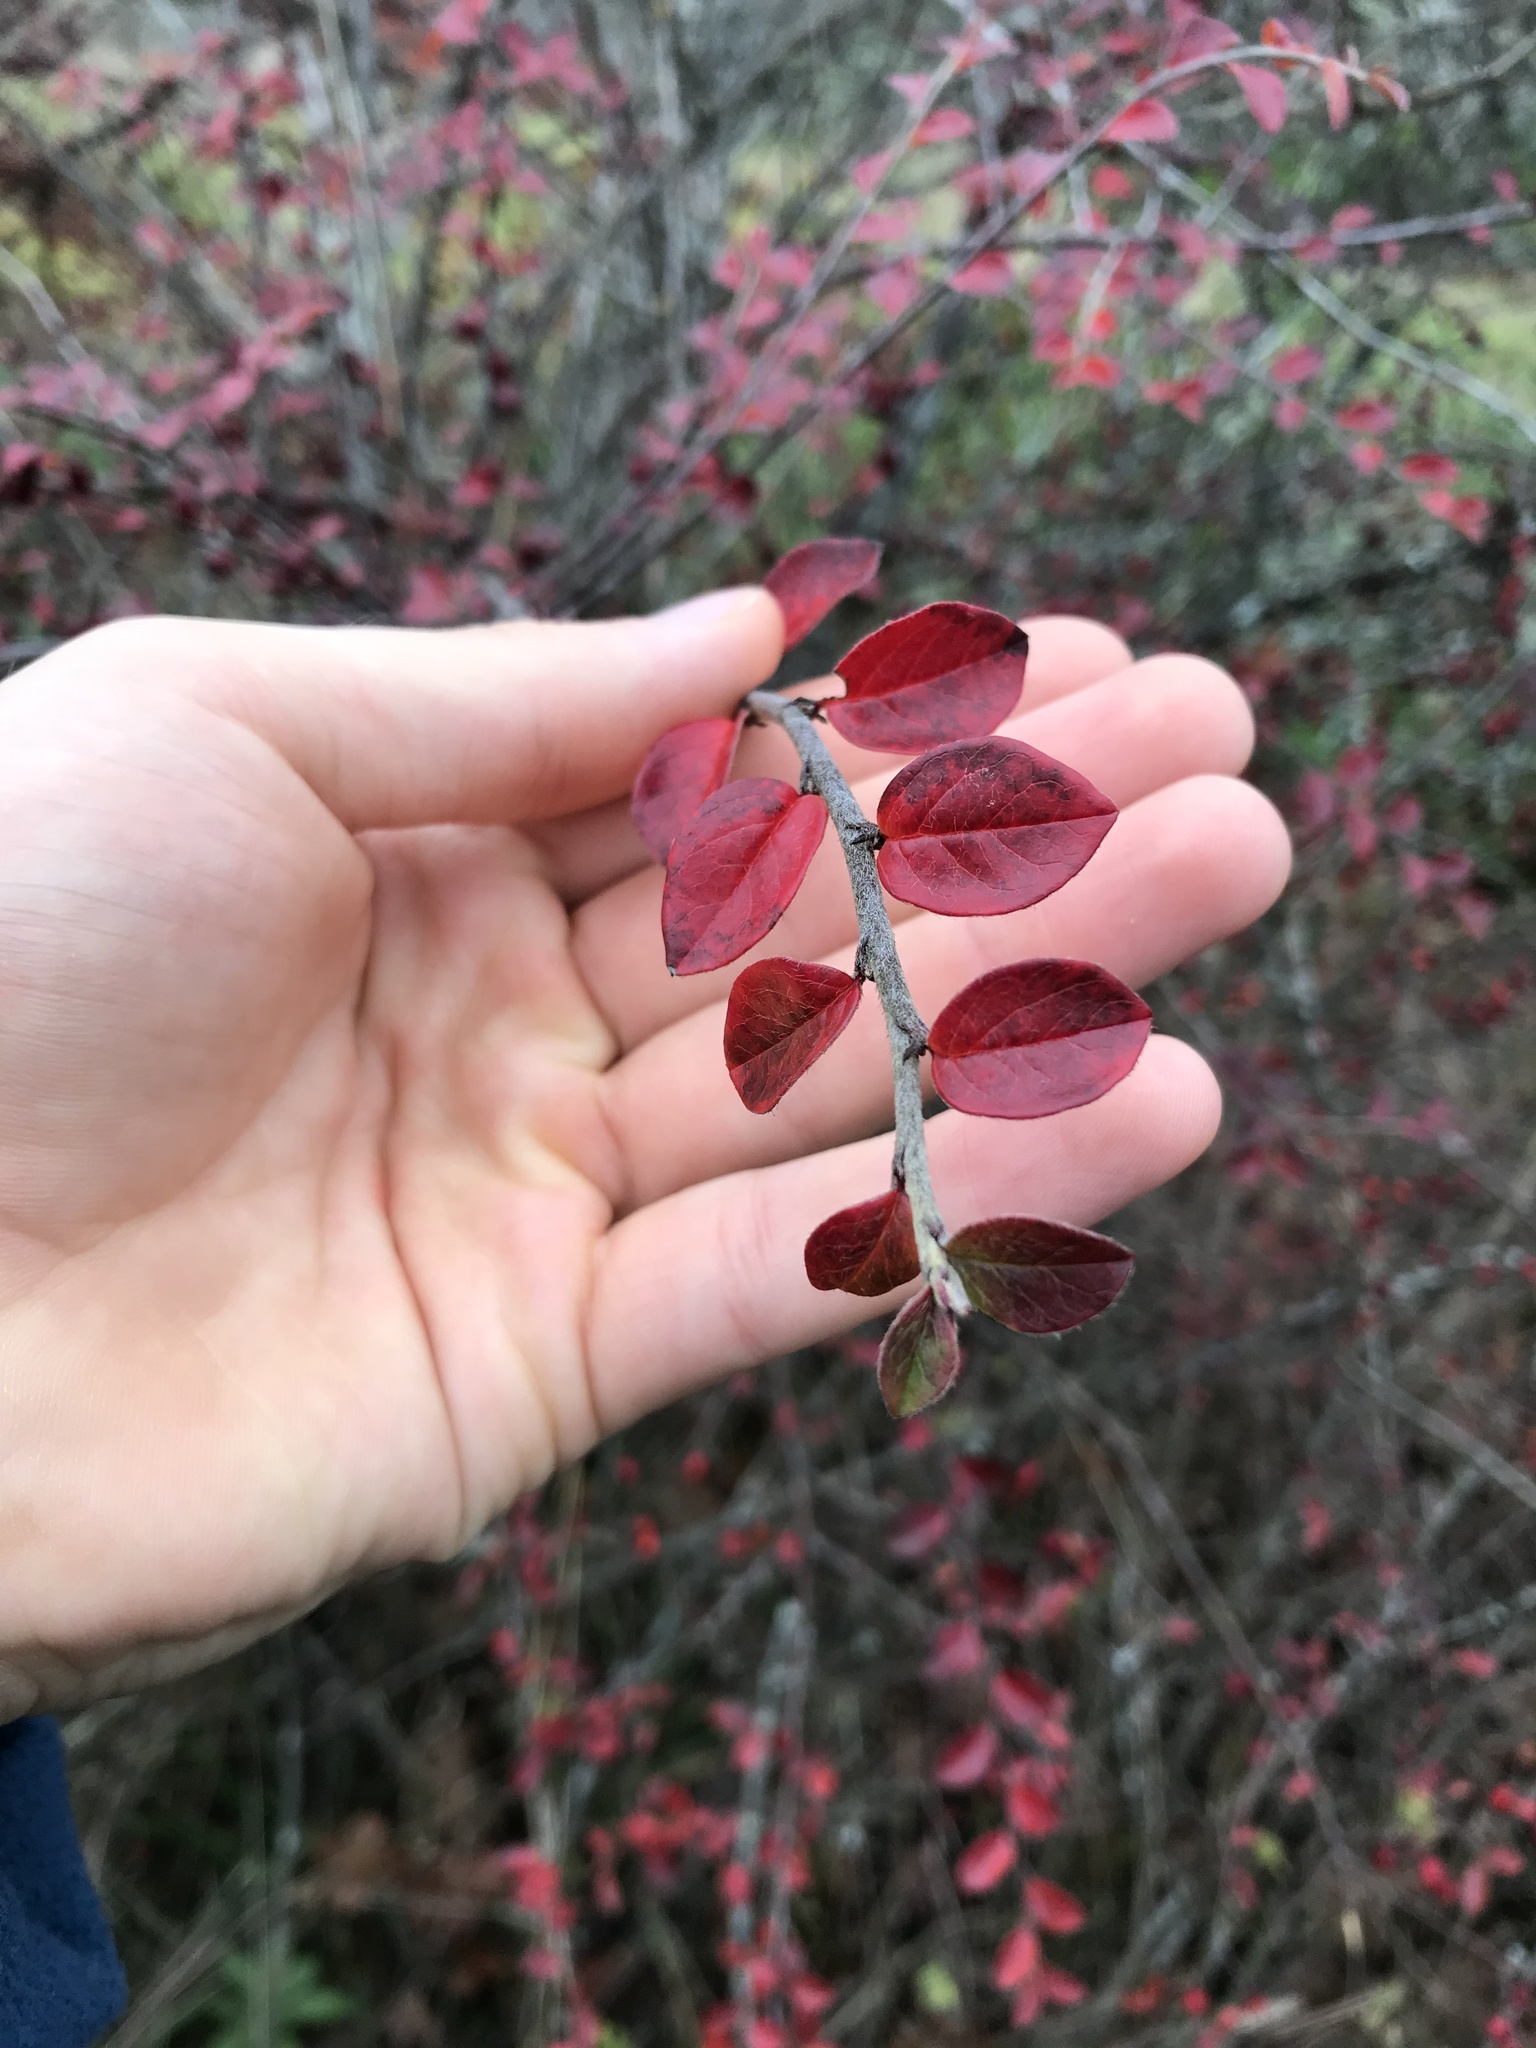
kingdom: Plantae
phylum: Tracheophyta
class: Magnoliopsida
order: Rosales
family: Rosaceae
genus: Cotoneaster
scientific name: Cotoneaster simonsii
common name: Himalayan cotoneaster
